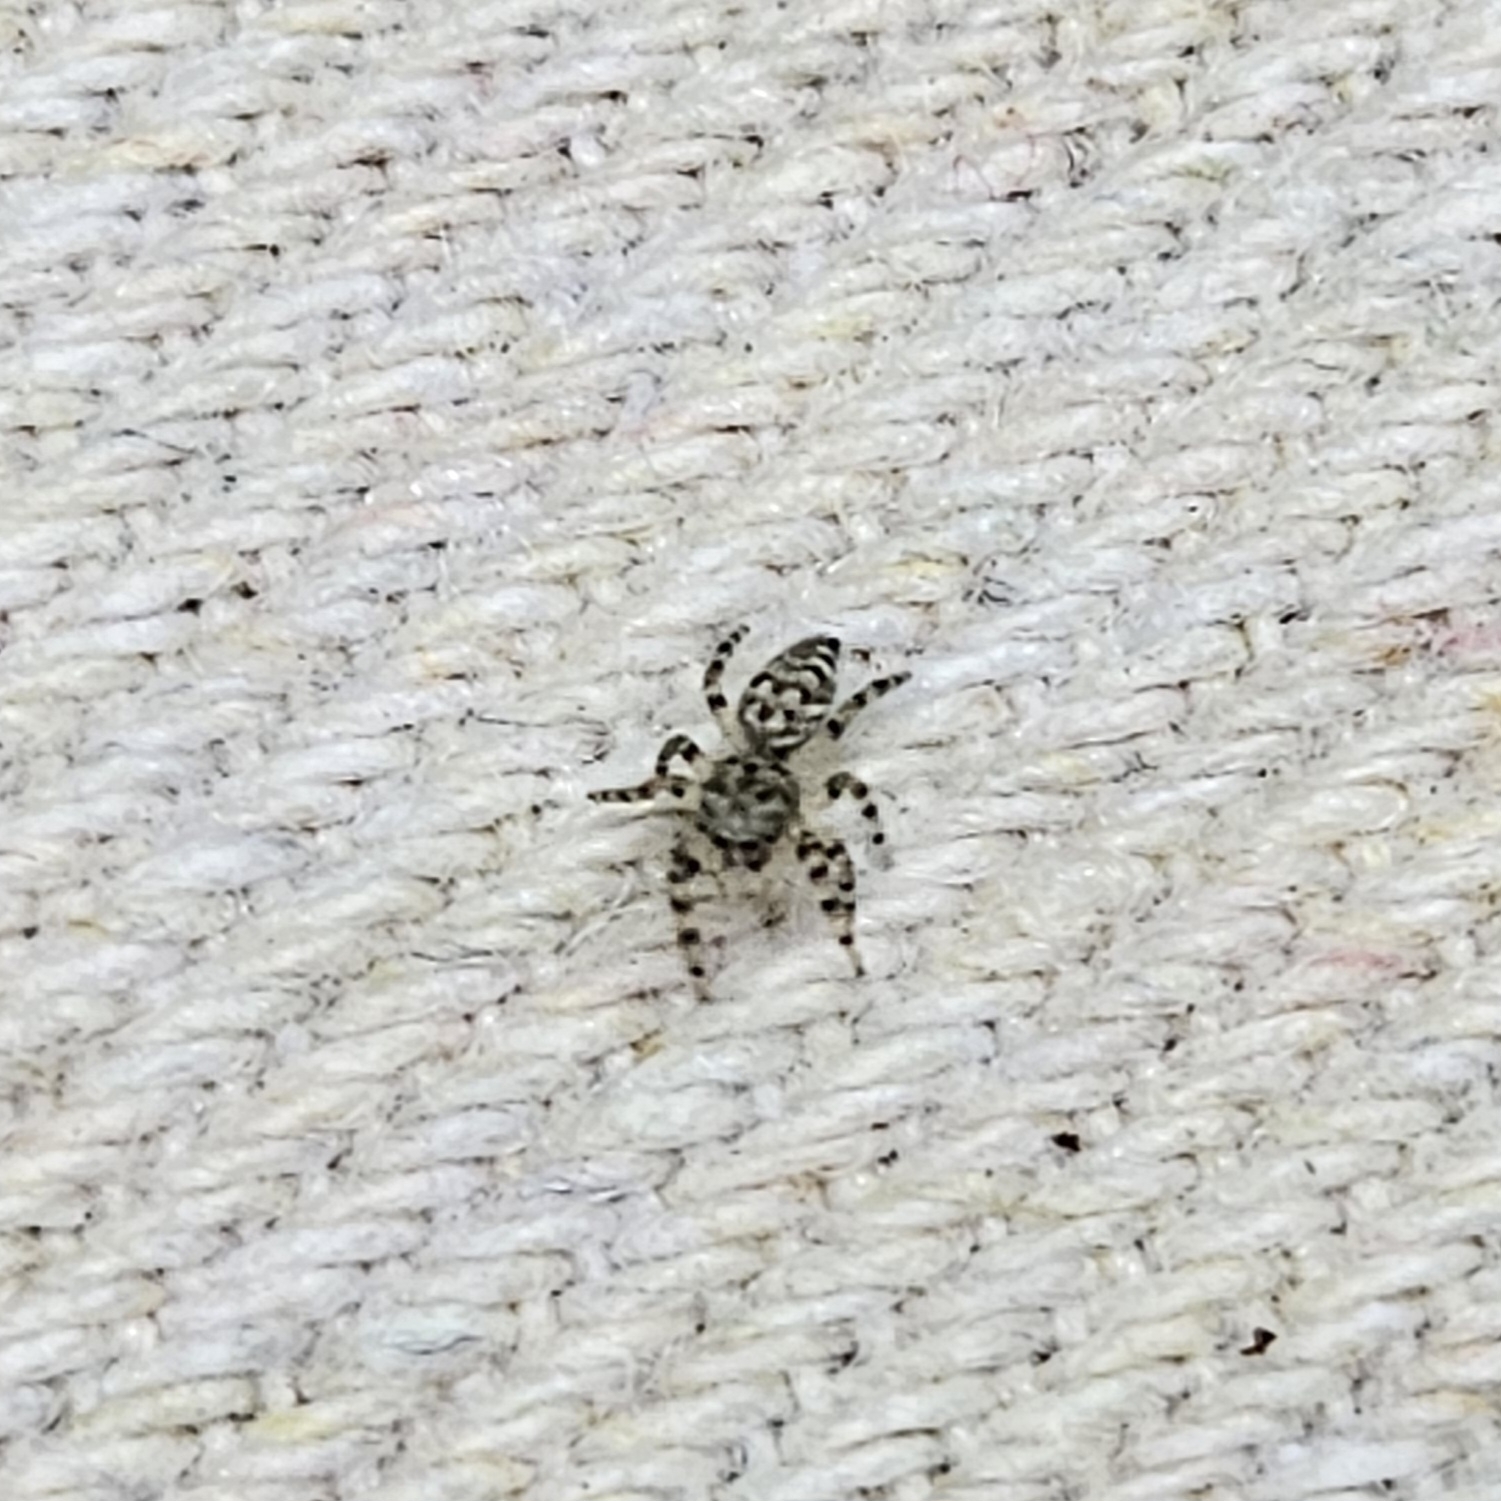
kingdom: Animalia
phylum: Arthropoda
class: Arachnida
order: Araneae
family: Salticidae
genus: Pelegrina
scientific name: Pelegrina galathea
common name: Jumping spiders
